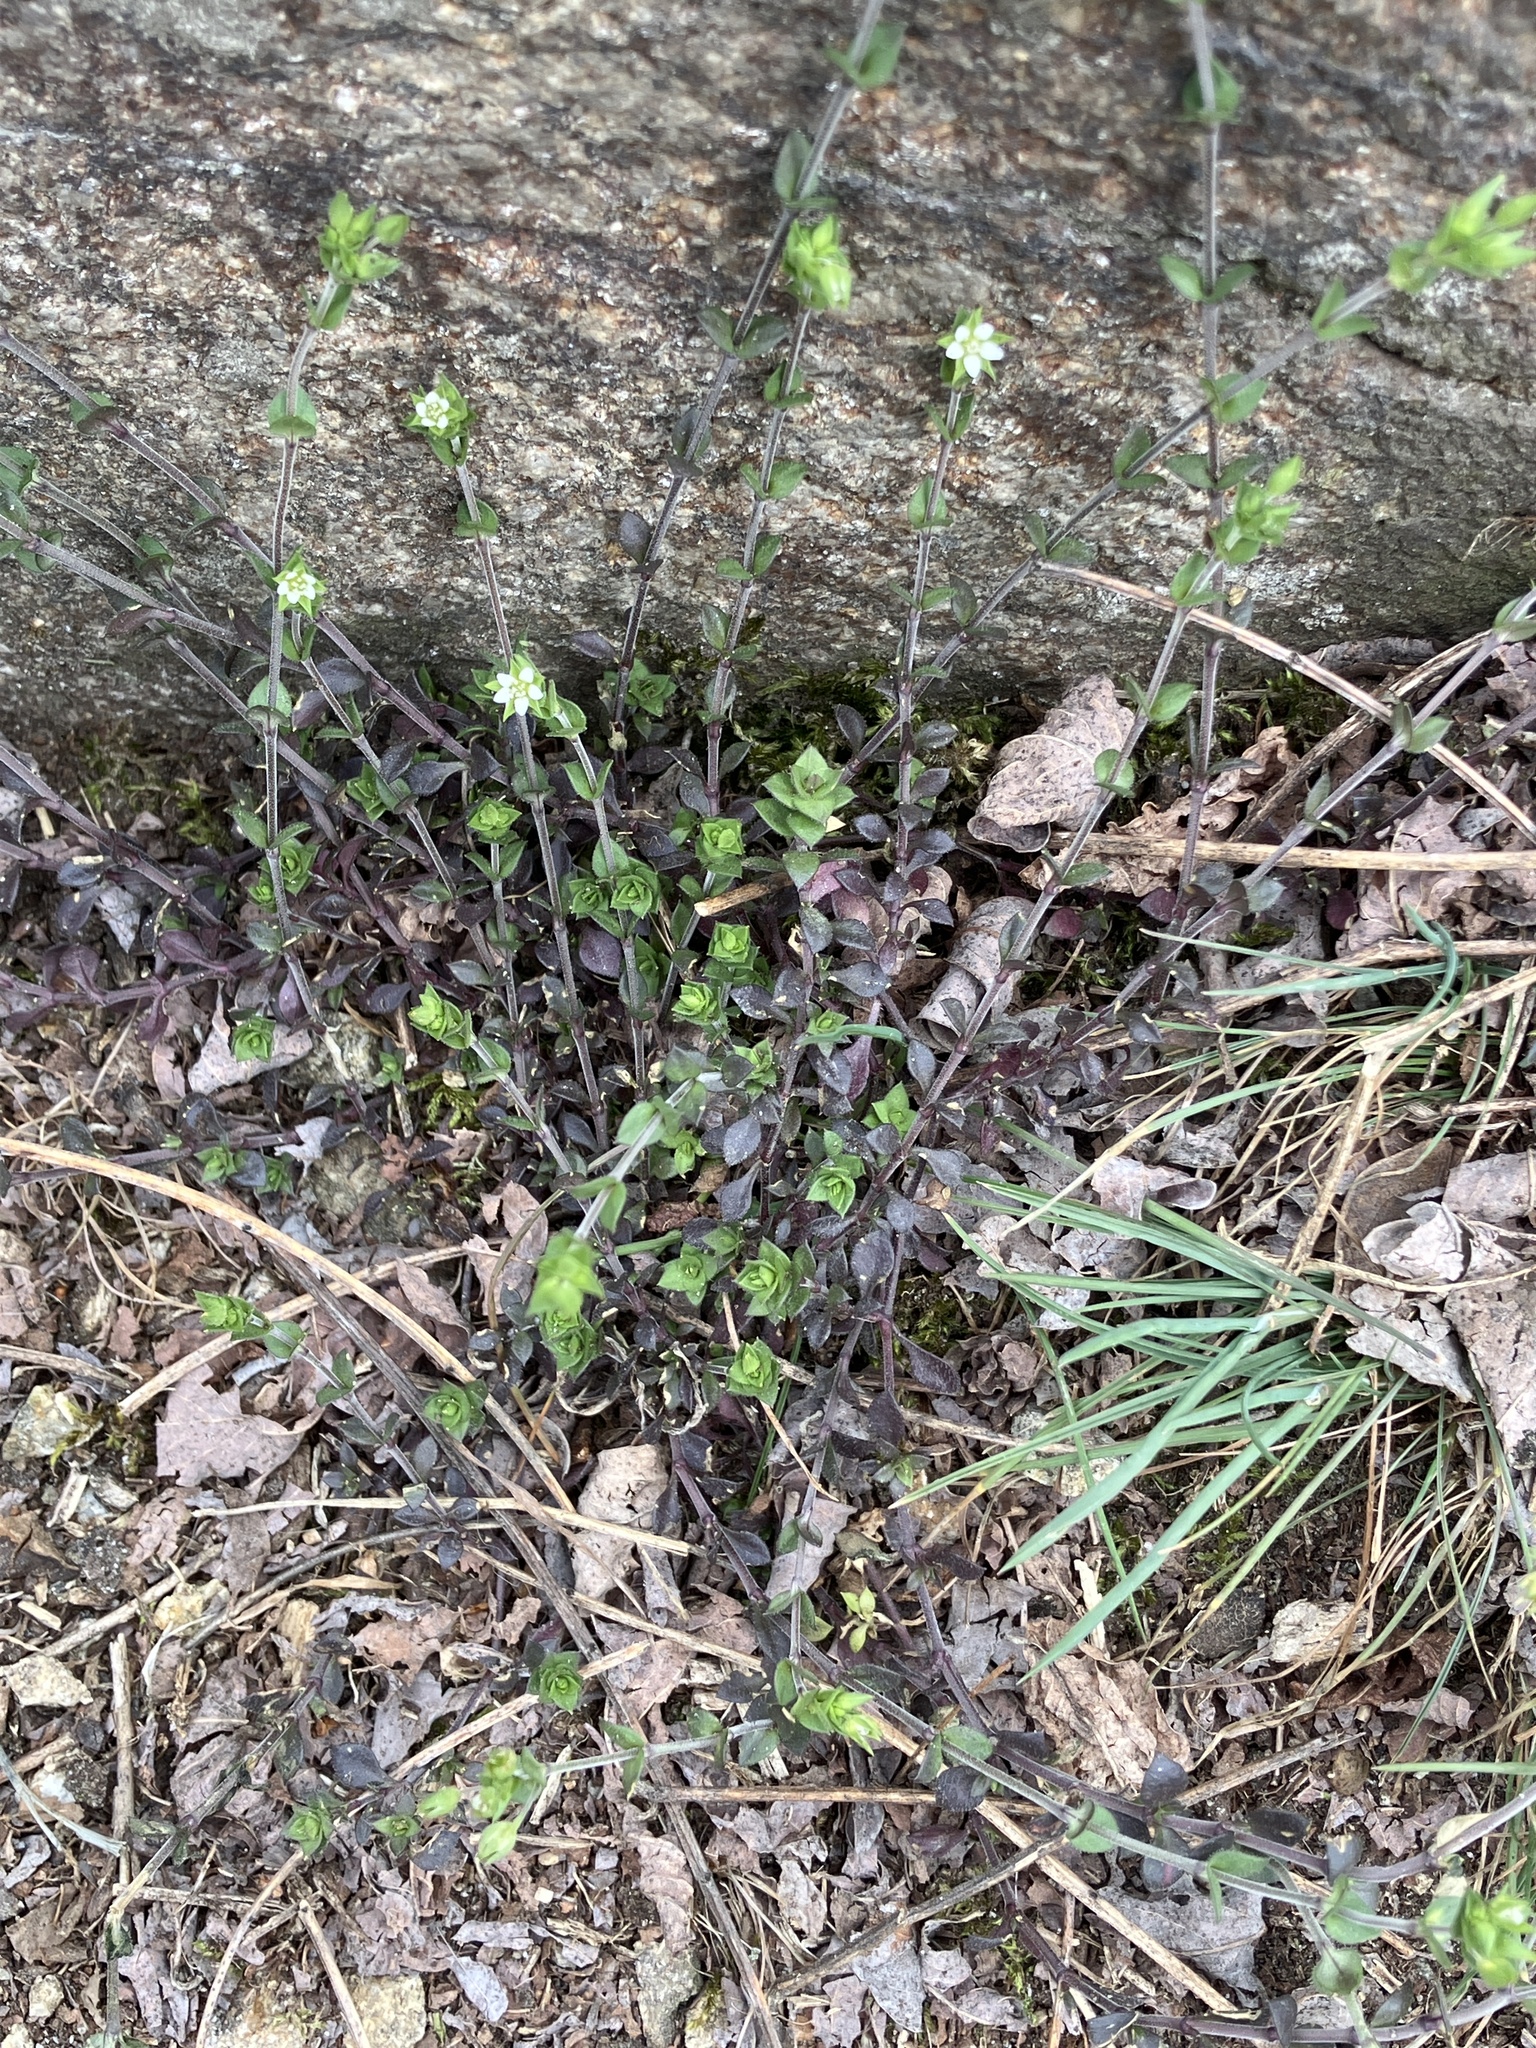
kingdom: Plantae
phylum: Tracheophyta
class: Magnoliopsida
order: Caryophyllales
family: Caryophyllaceae
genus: Arenaria
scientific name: Arenaria serpyllifolia
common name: Thyme-leaved sandwort
